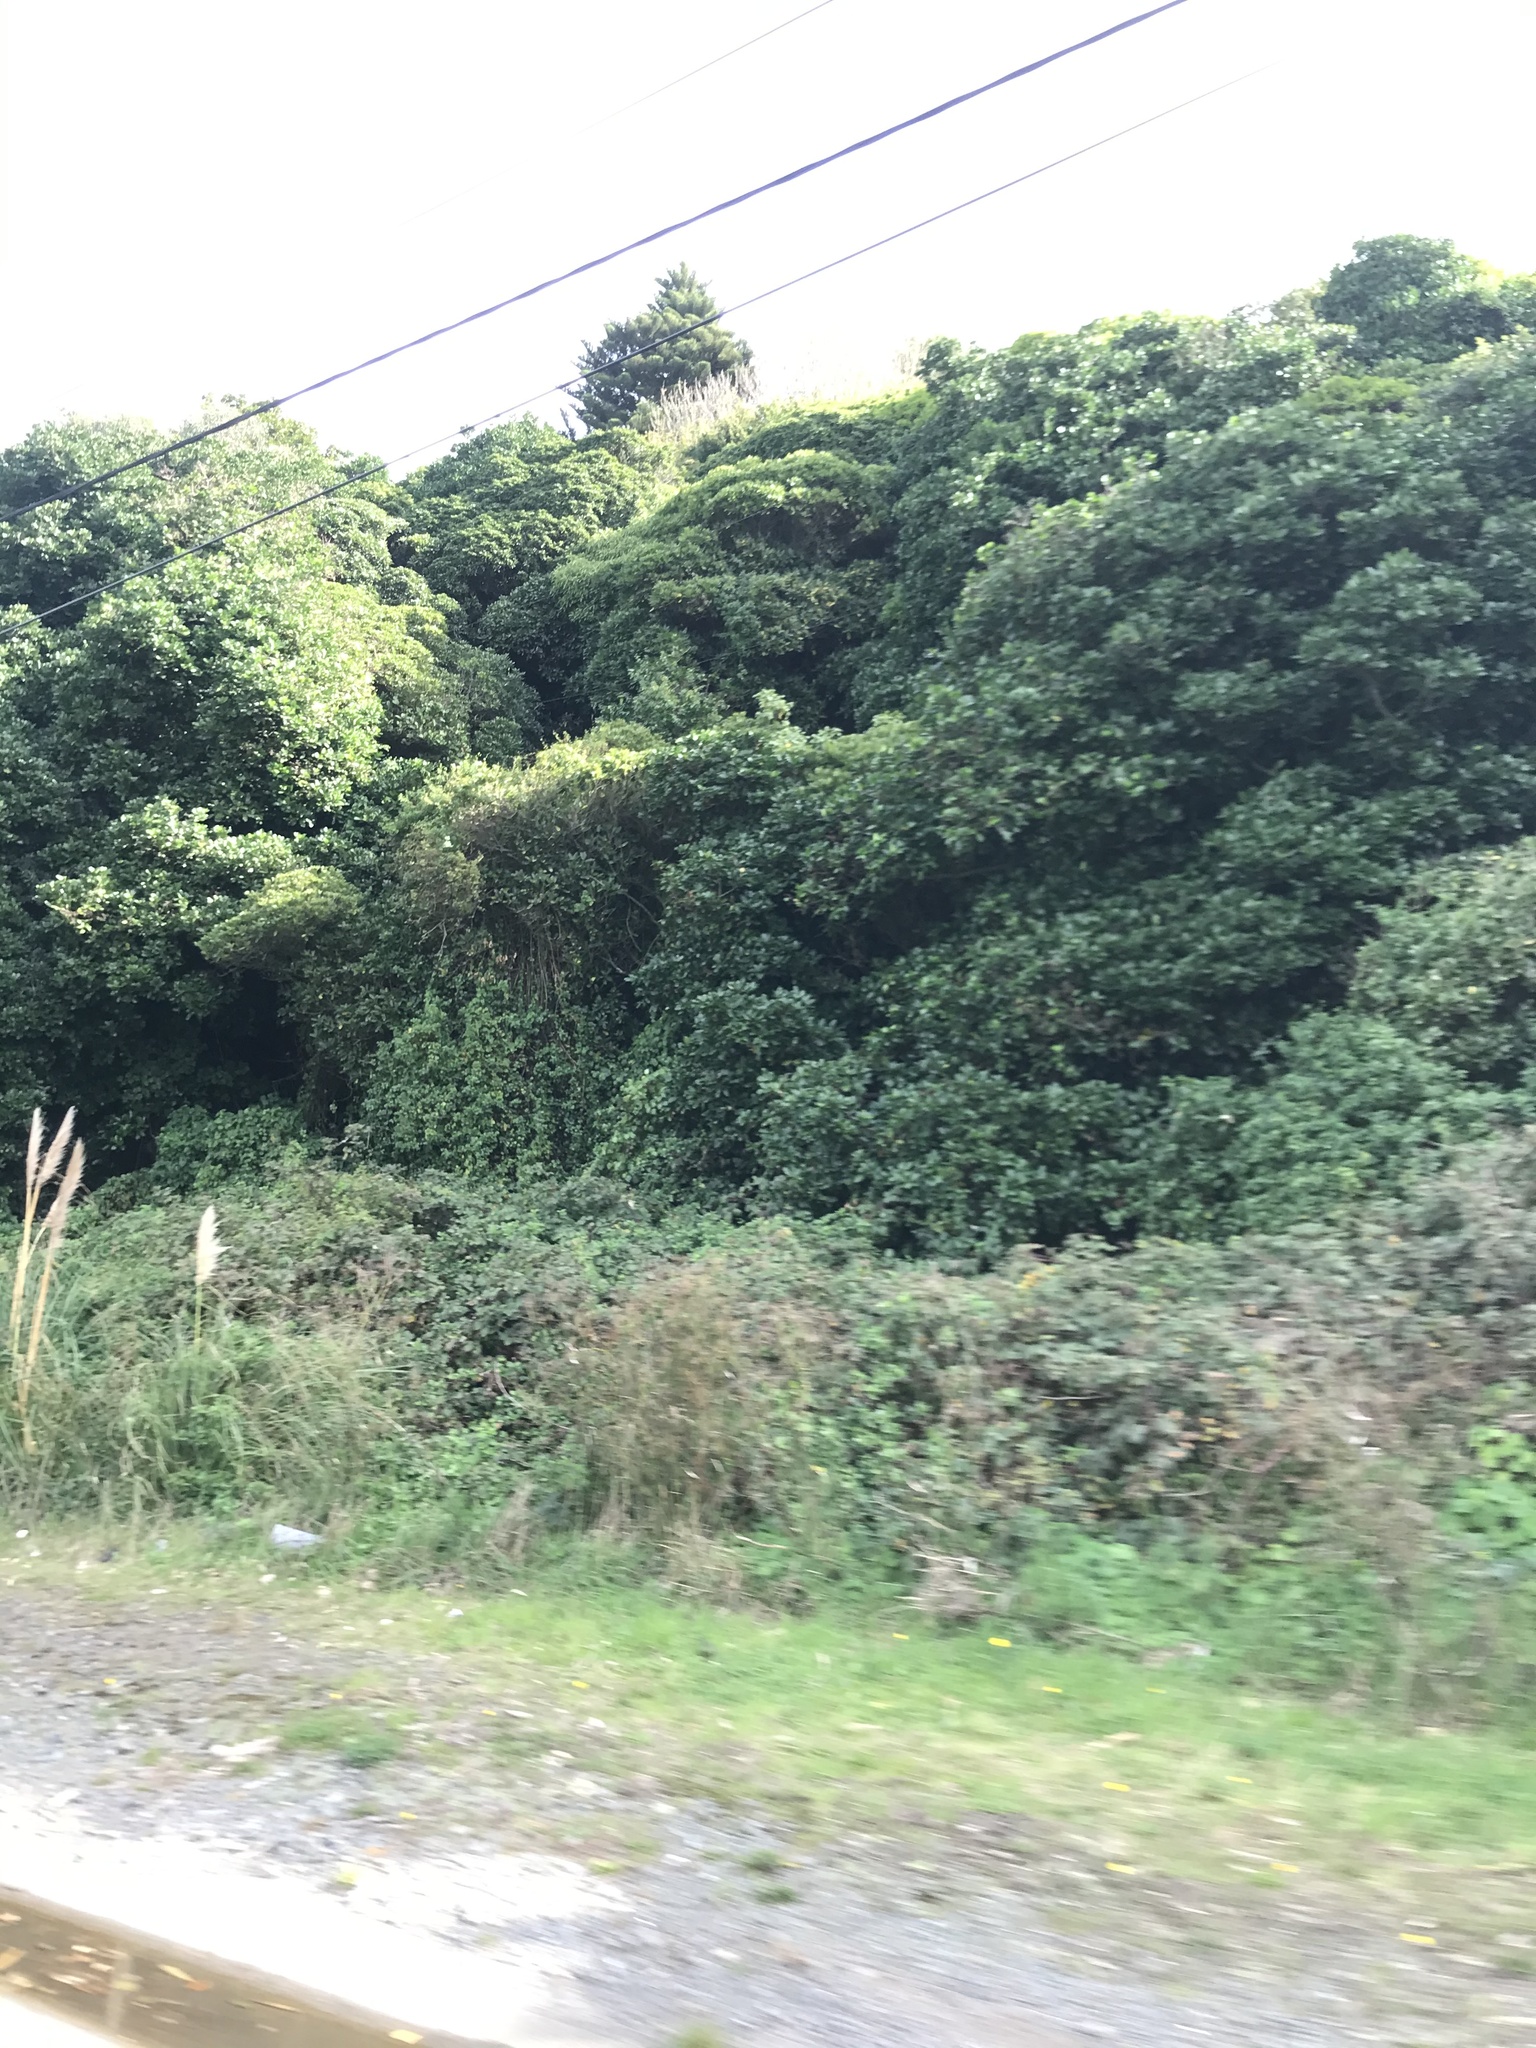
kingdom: Plantae
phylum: Tracheophyta
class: Liliopsida
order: Poales
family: Poaceae
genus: Cortaderia
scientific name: Cortaderia selloana
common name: Uruguayan pampas grass
